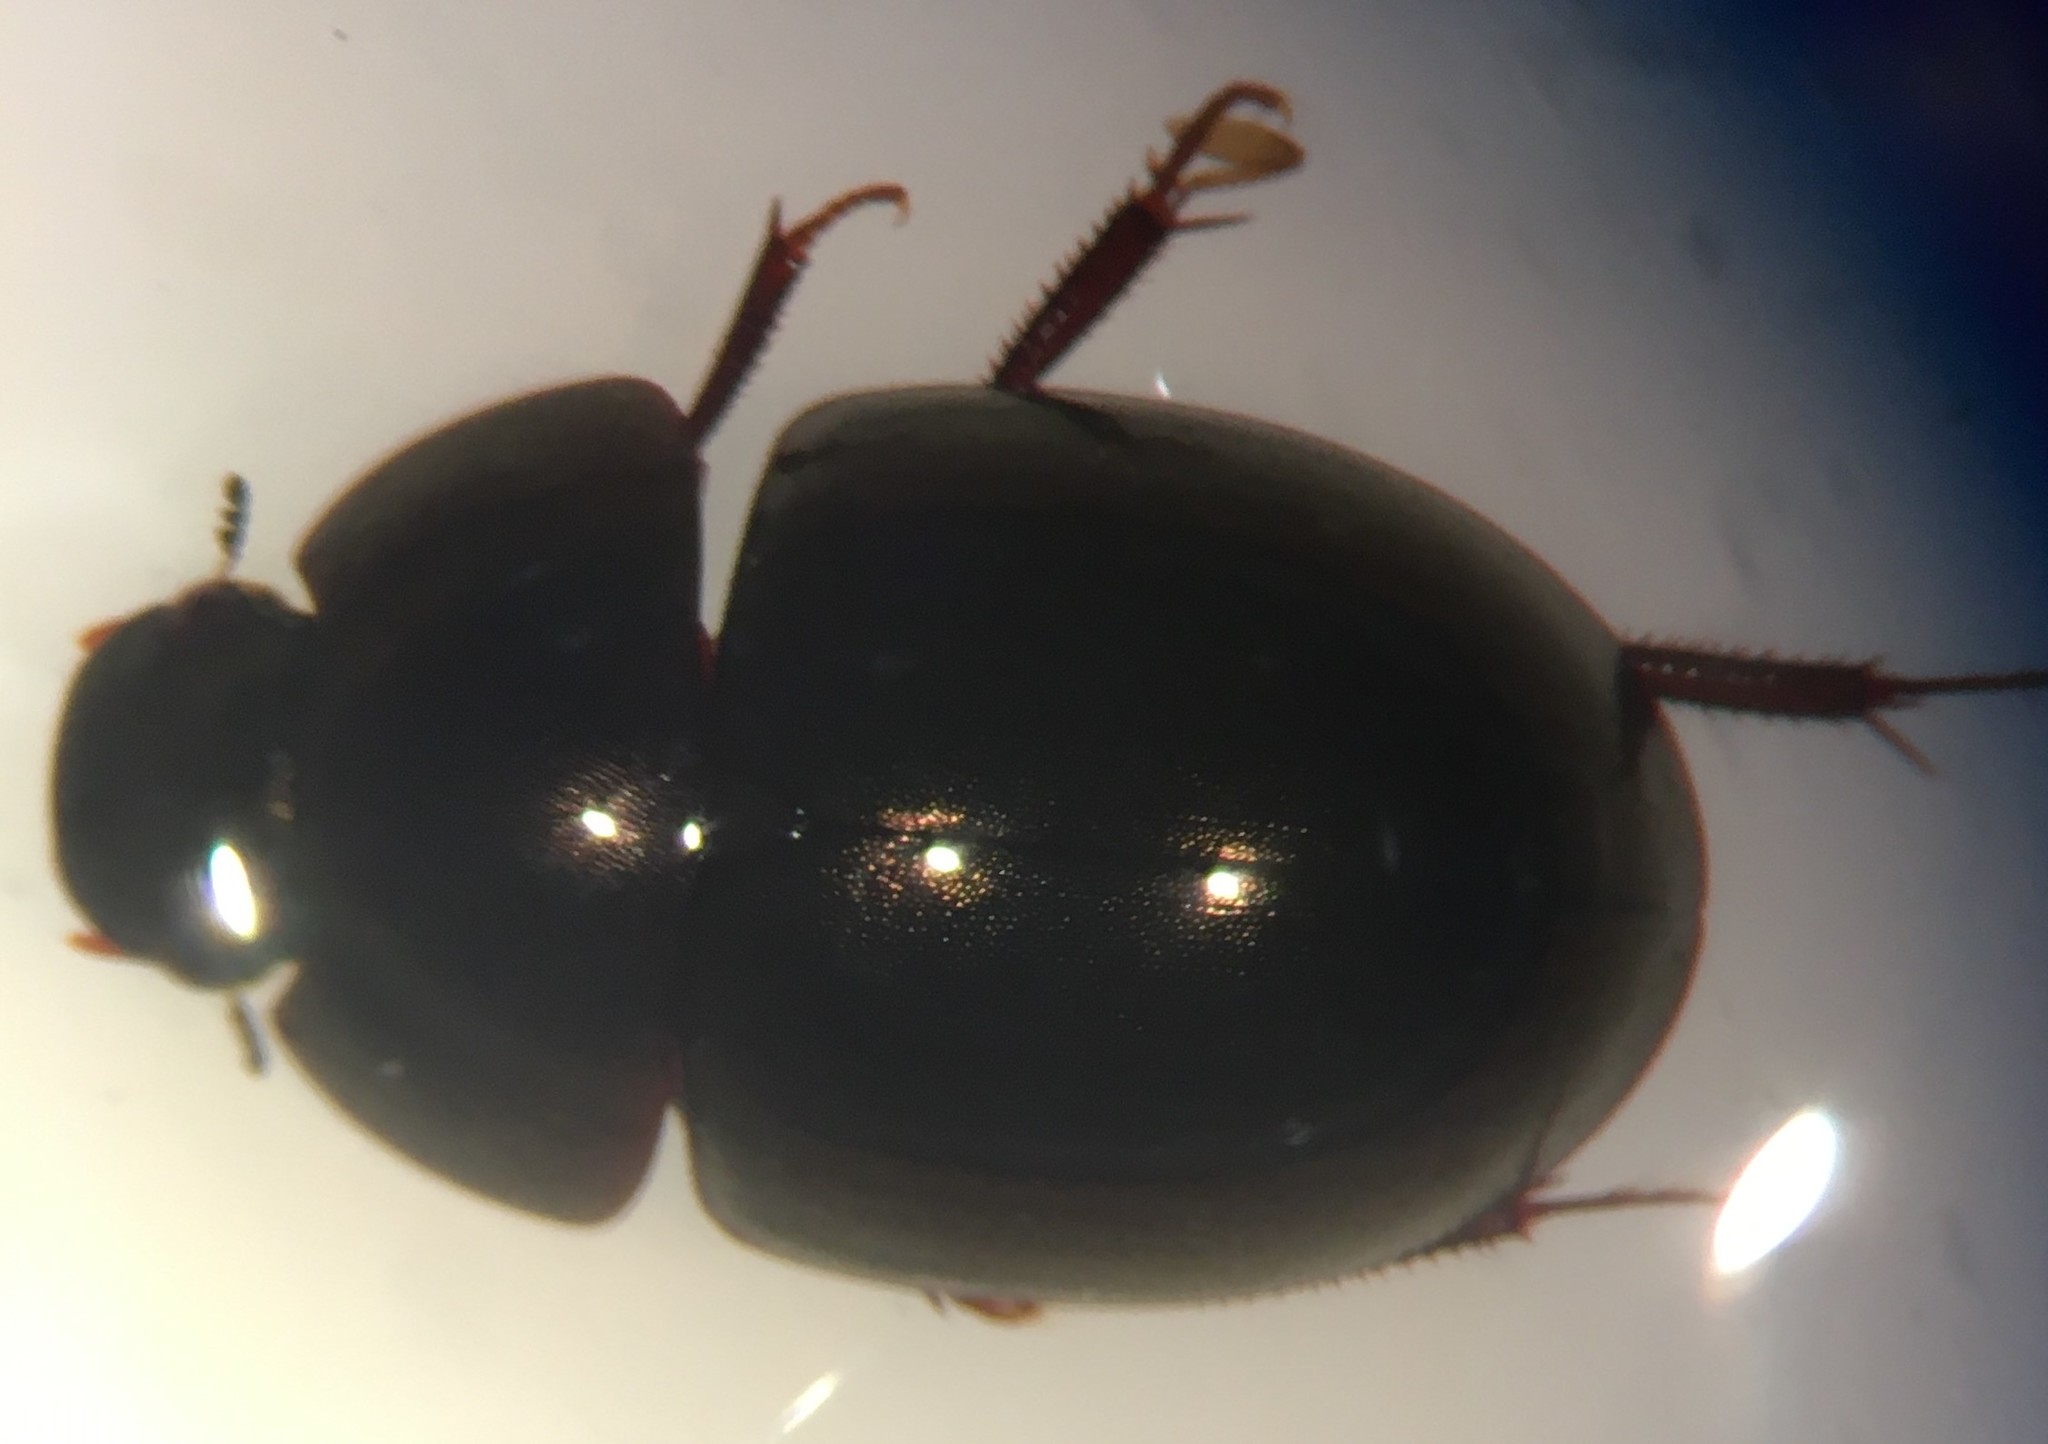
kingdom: Animalia
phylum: Arthropoda
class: Insecta
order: Coleoptera
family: Hydrophilidae
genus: Limnohydrobius
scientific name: Limnohydrobius tumidus
